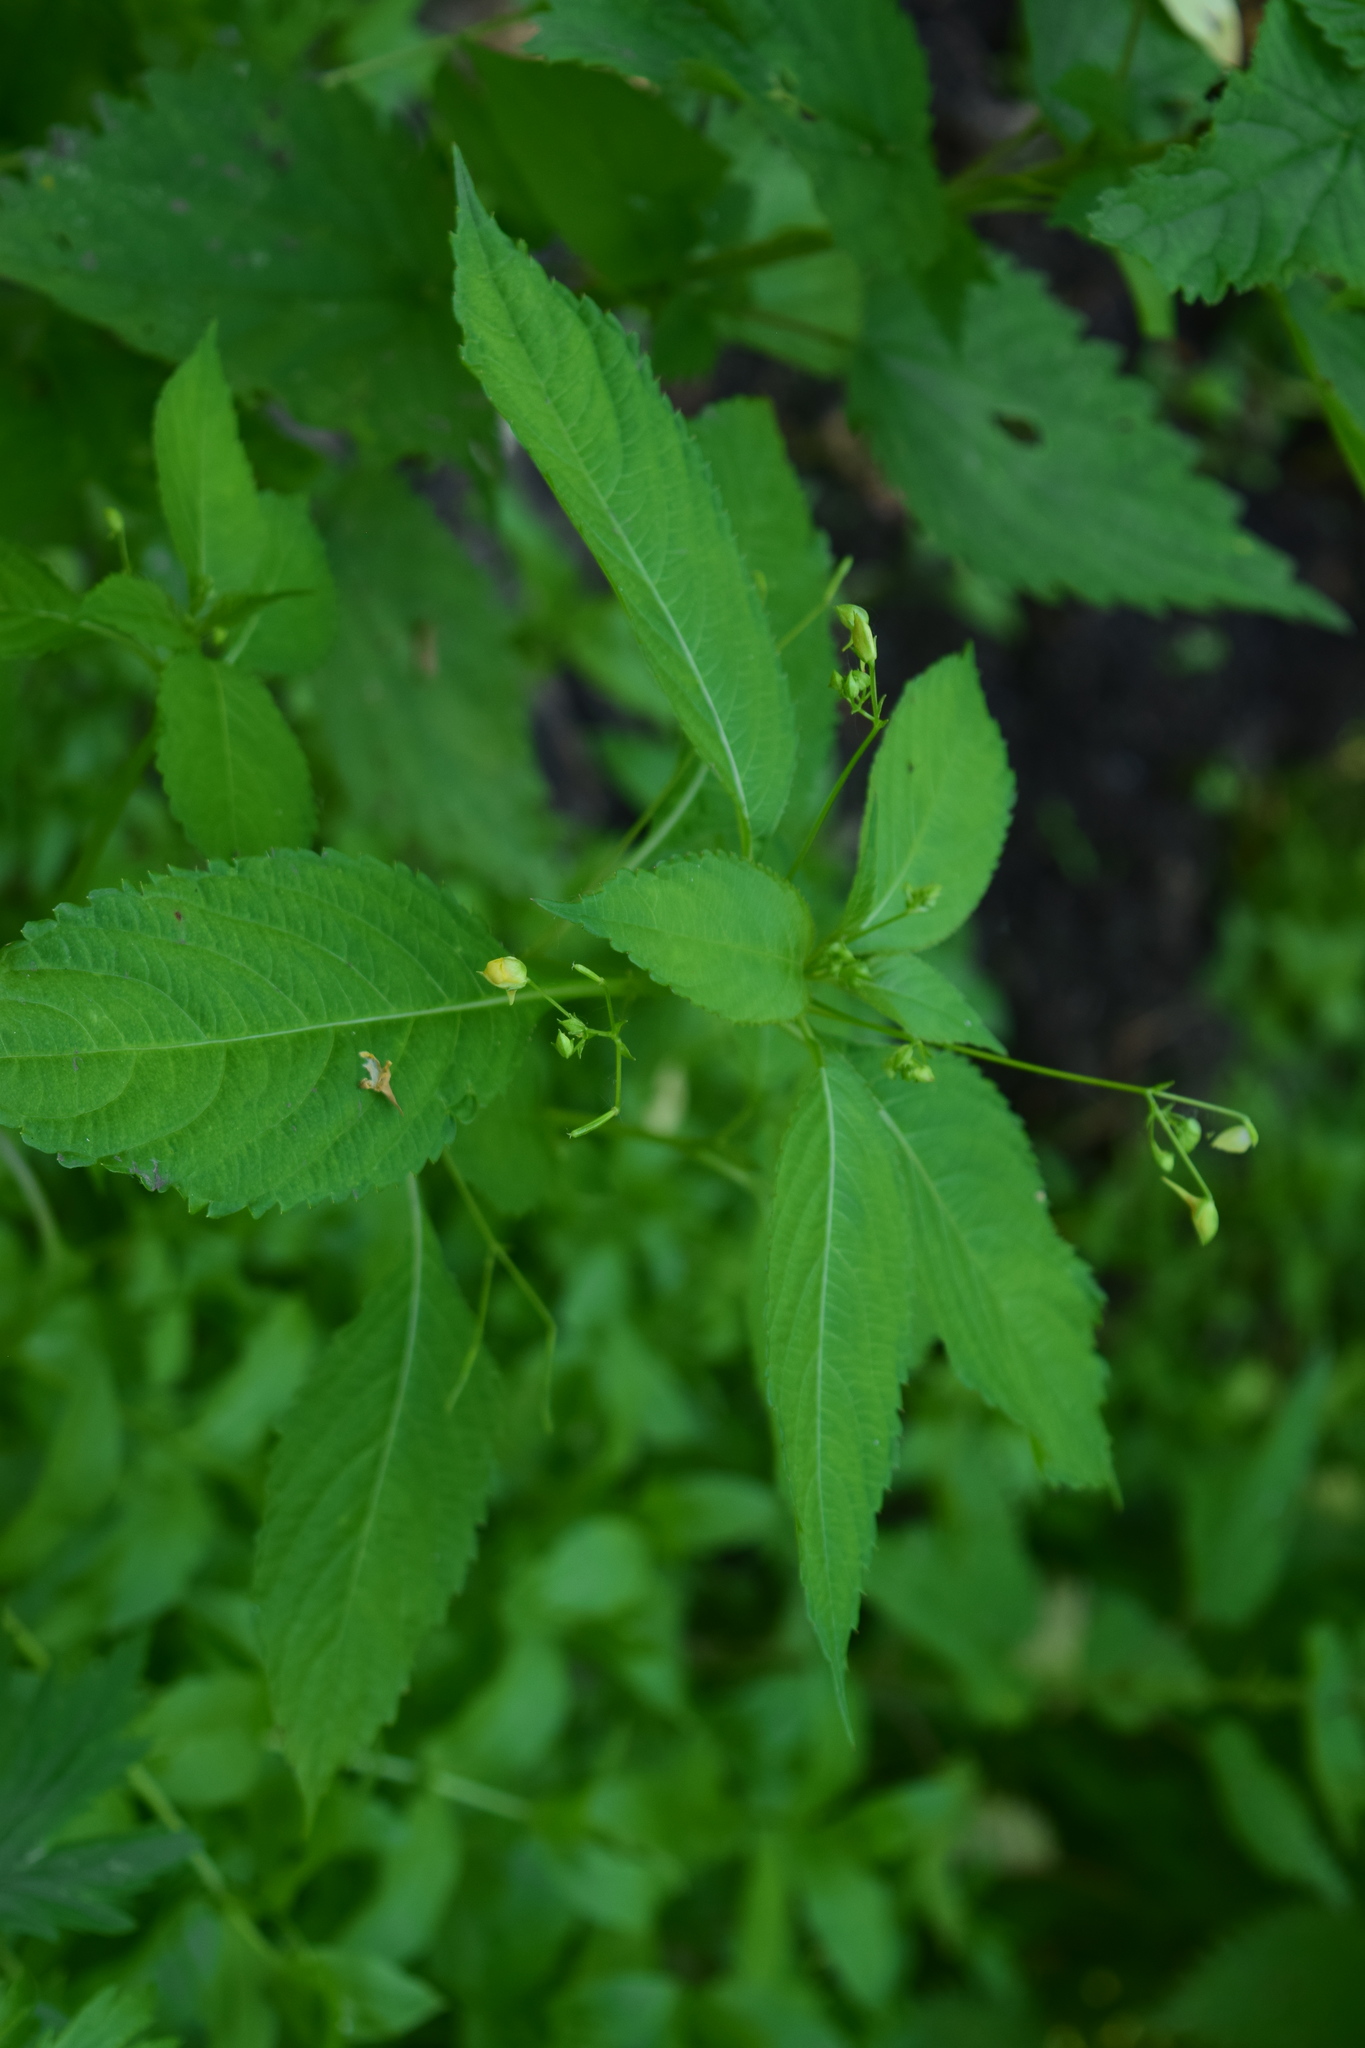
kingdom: Plantae
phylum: Tracheophyta
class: Magnoliopsida
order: Ericales
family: Balsaminaceae
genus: Impatiens
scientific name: Impatiens parviflora
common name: Small balsam
